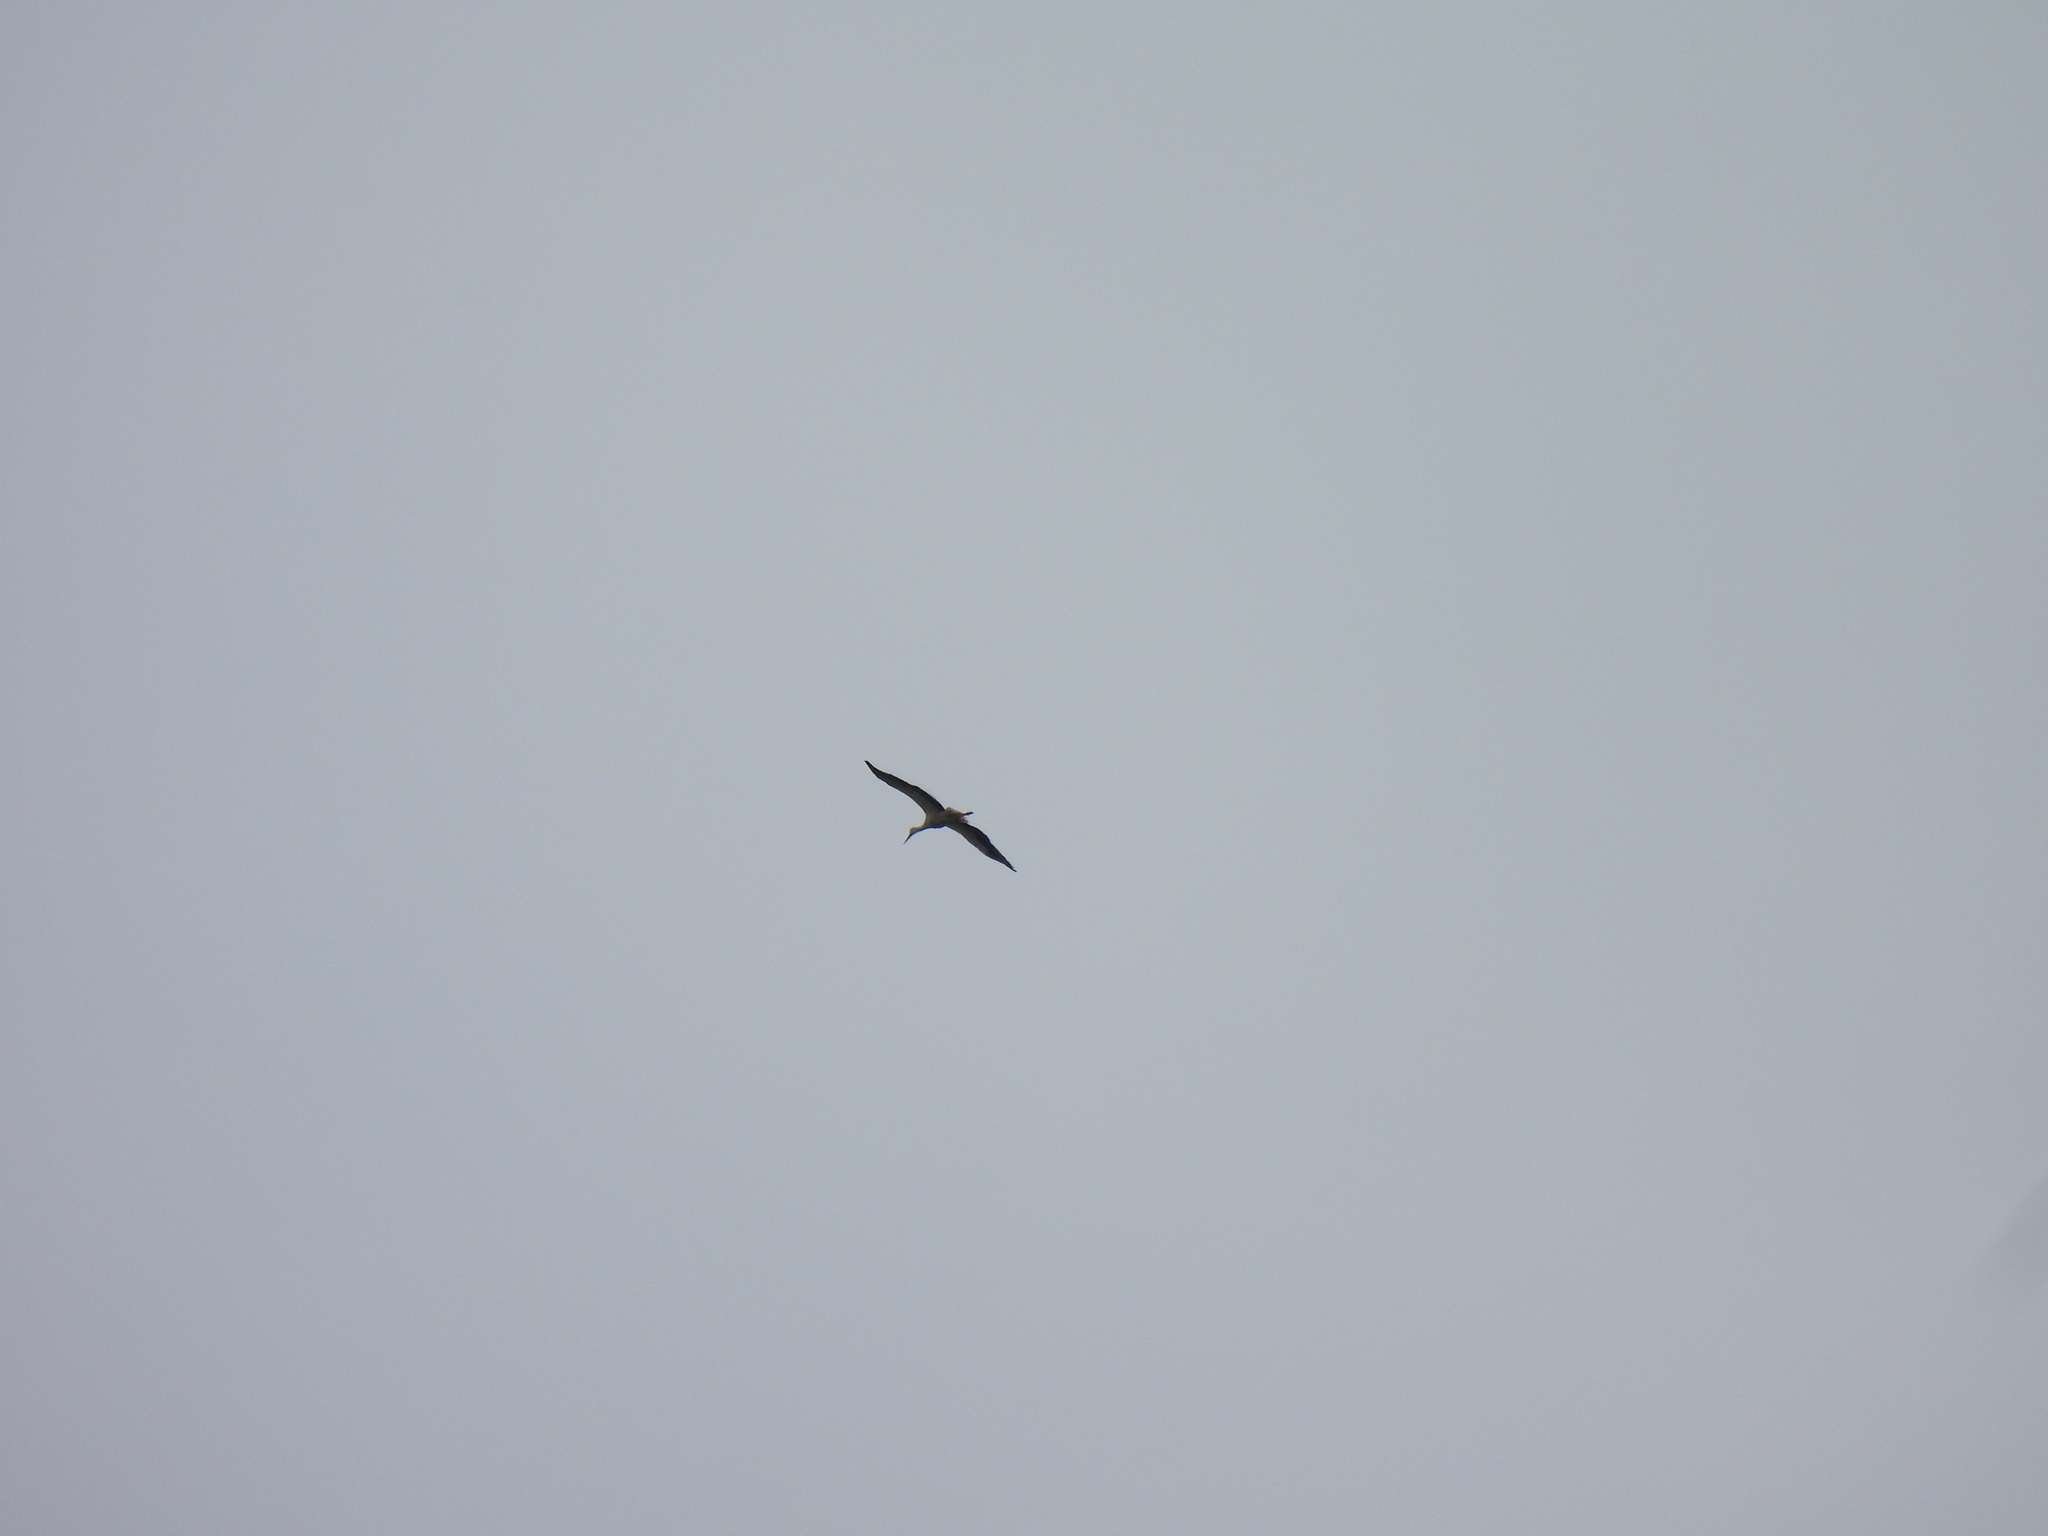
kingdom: Animalia
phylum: Chordata
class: Aves
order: Ciconiiformes
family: Ciconiidae
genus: Ciconia
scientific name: Ciconia ciconia
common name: White stork
